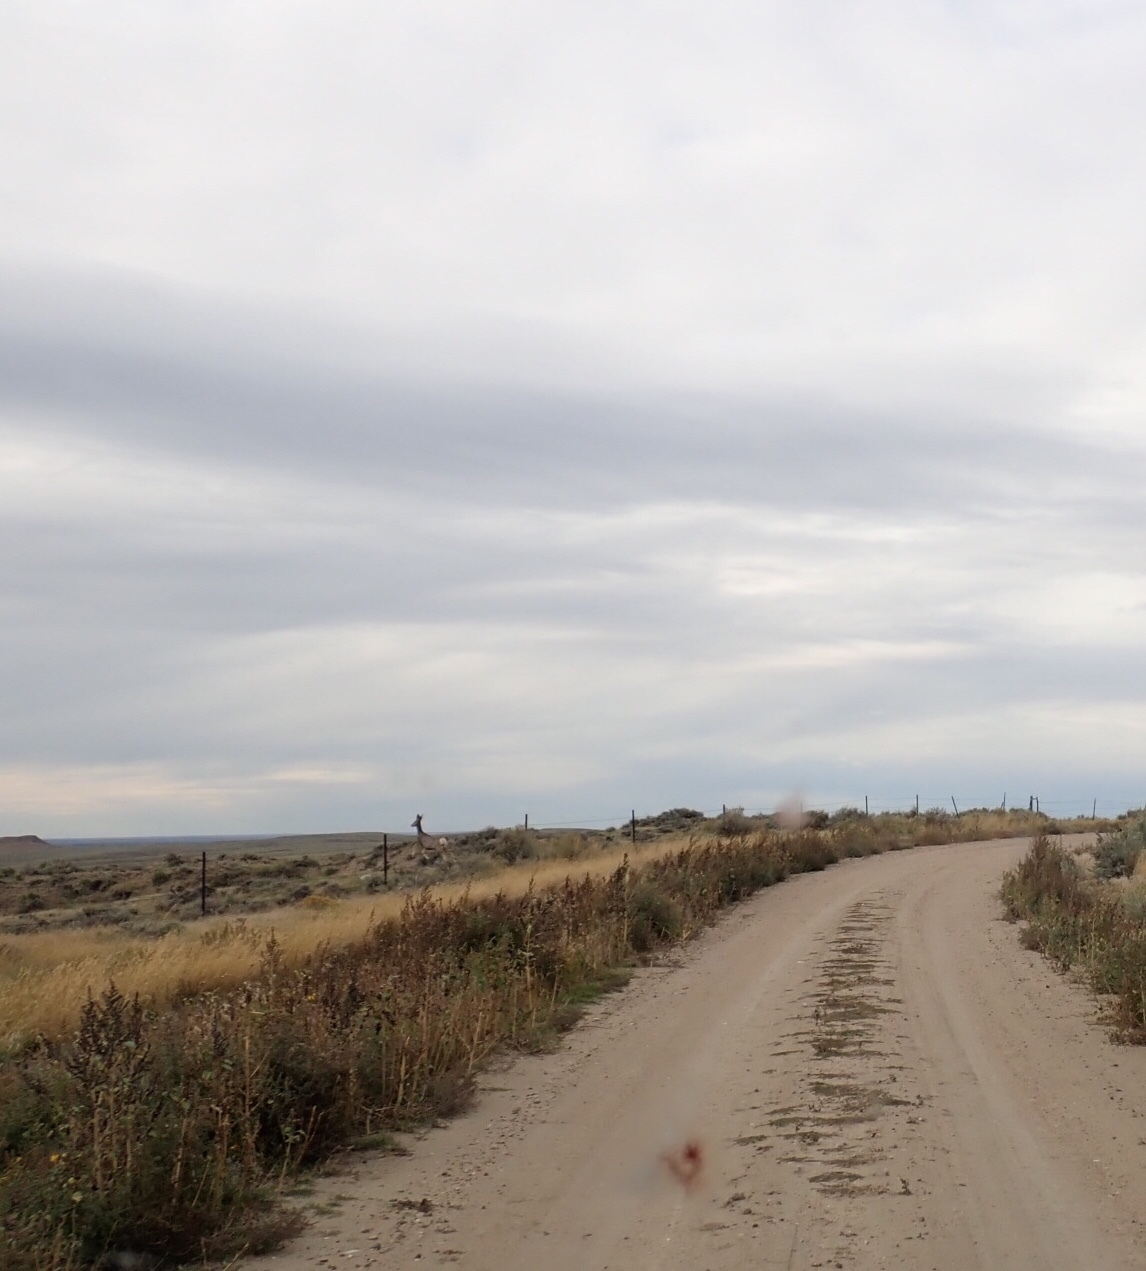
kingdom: Animalia
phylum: Chordata
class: Mammalia
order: Artiodactyla
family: Cervidae
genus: Odocoileus
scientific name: Odocoileus hemionus
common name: Mule deer
